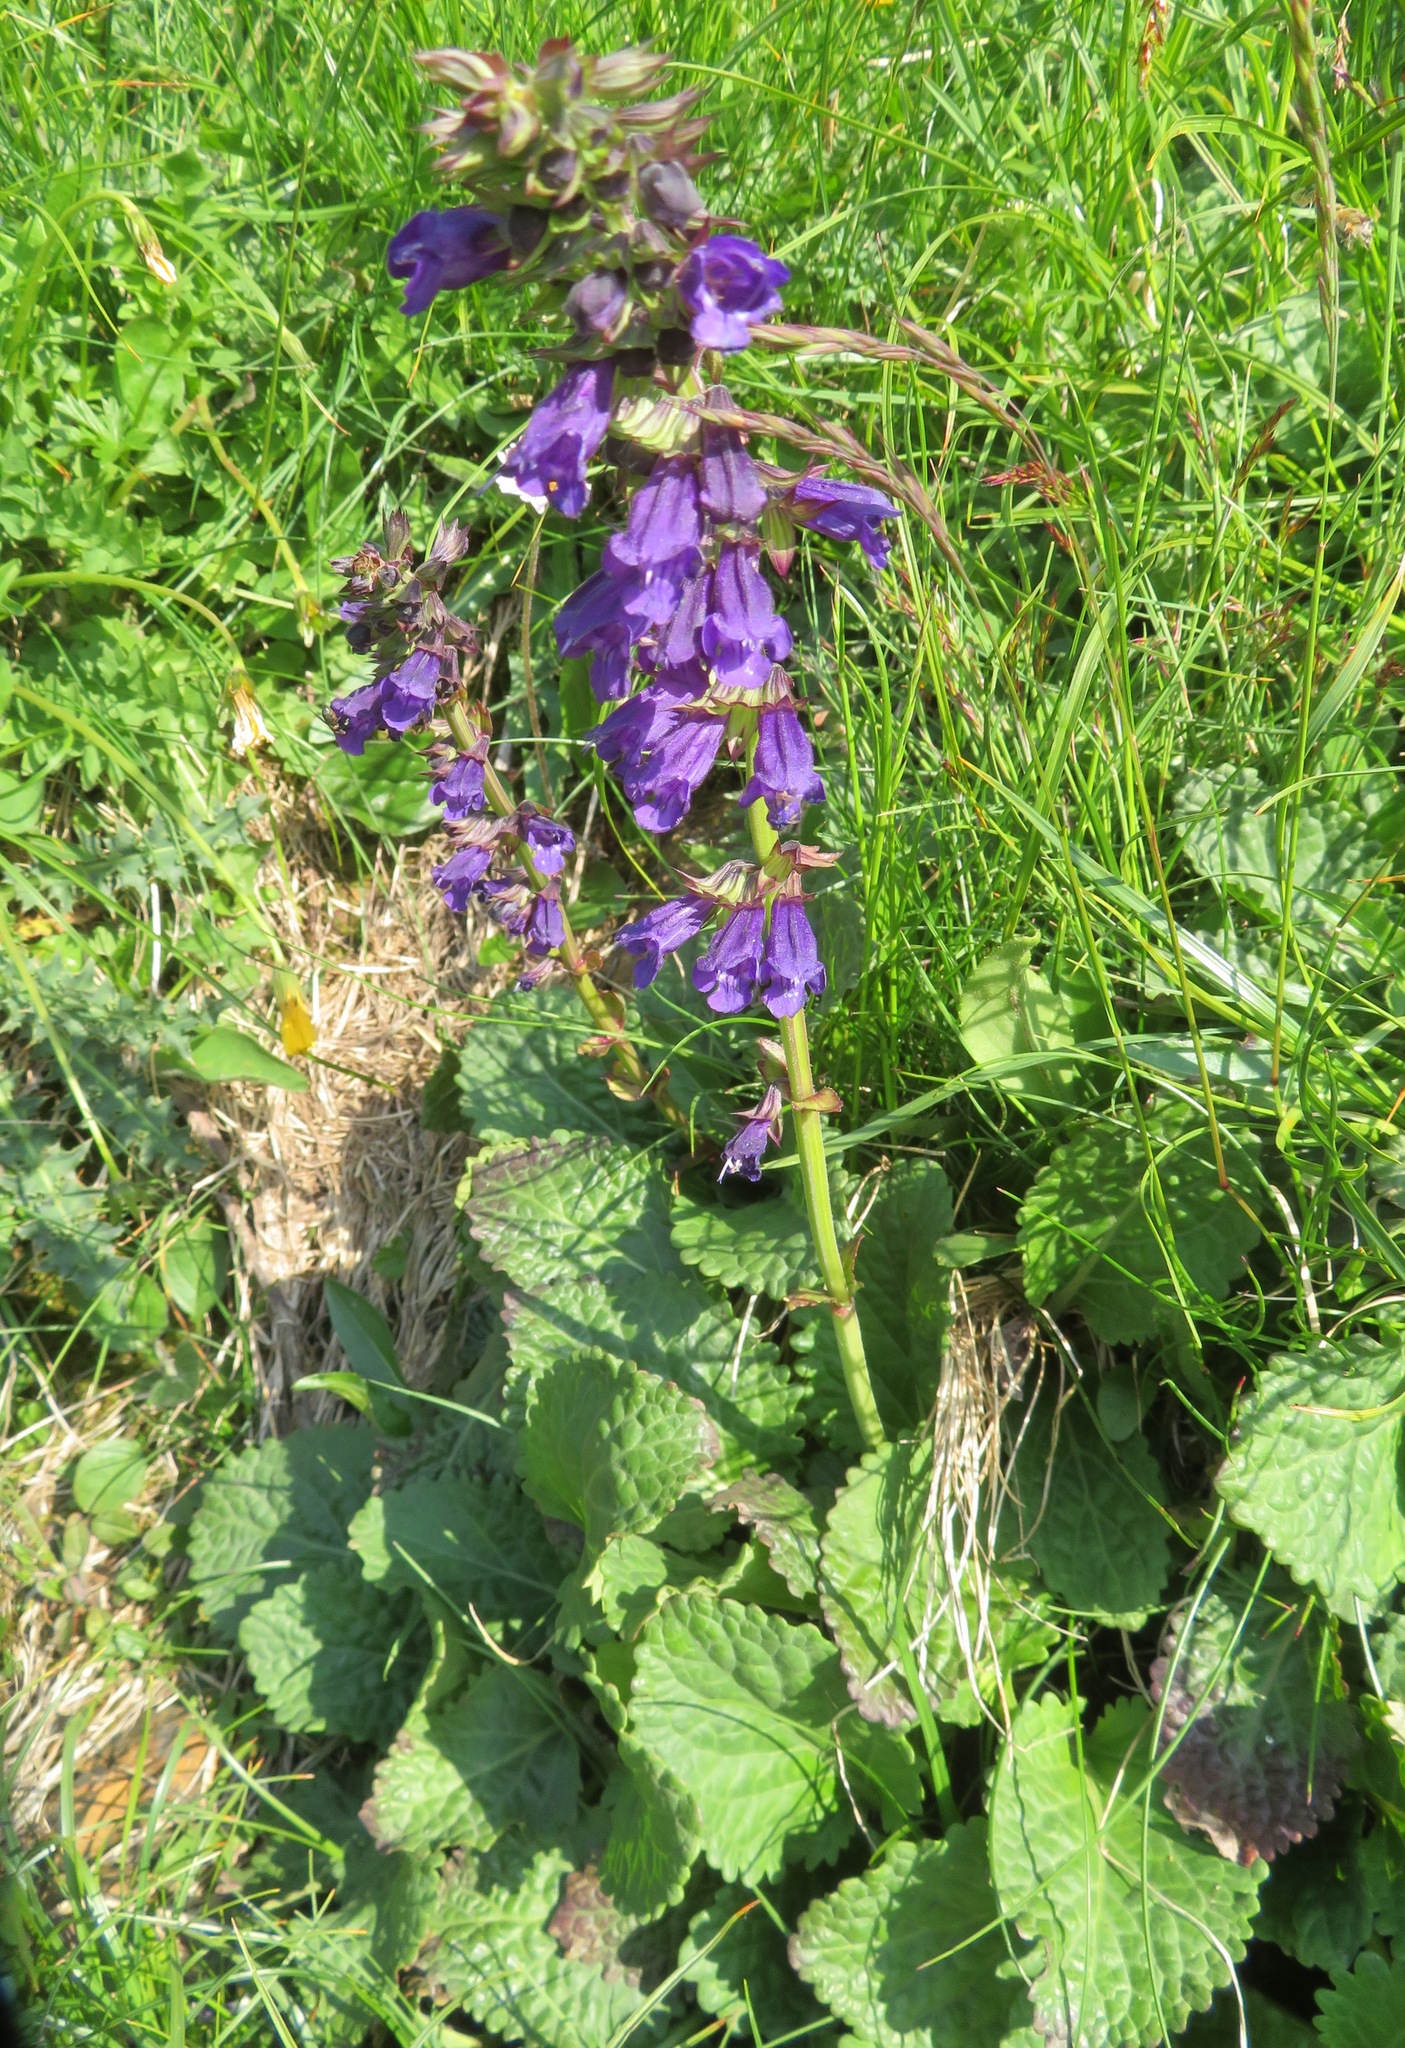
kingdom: Plantae
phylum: Tracheophyta
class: Magnoliopsida
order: Lamiales
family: Lamiaceae
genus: Horminum
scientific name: Horminum pyrenaicum
